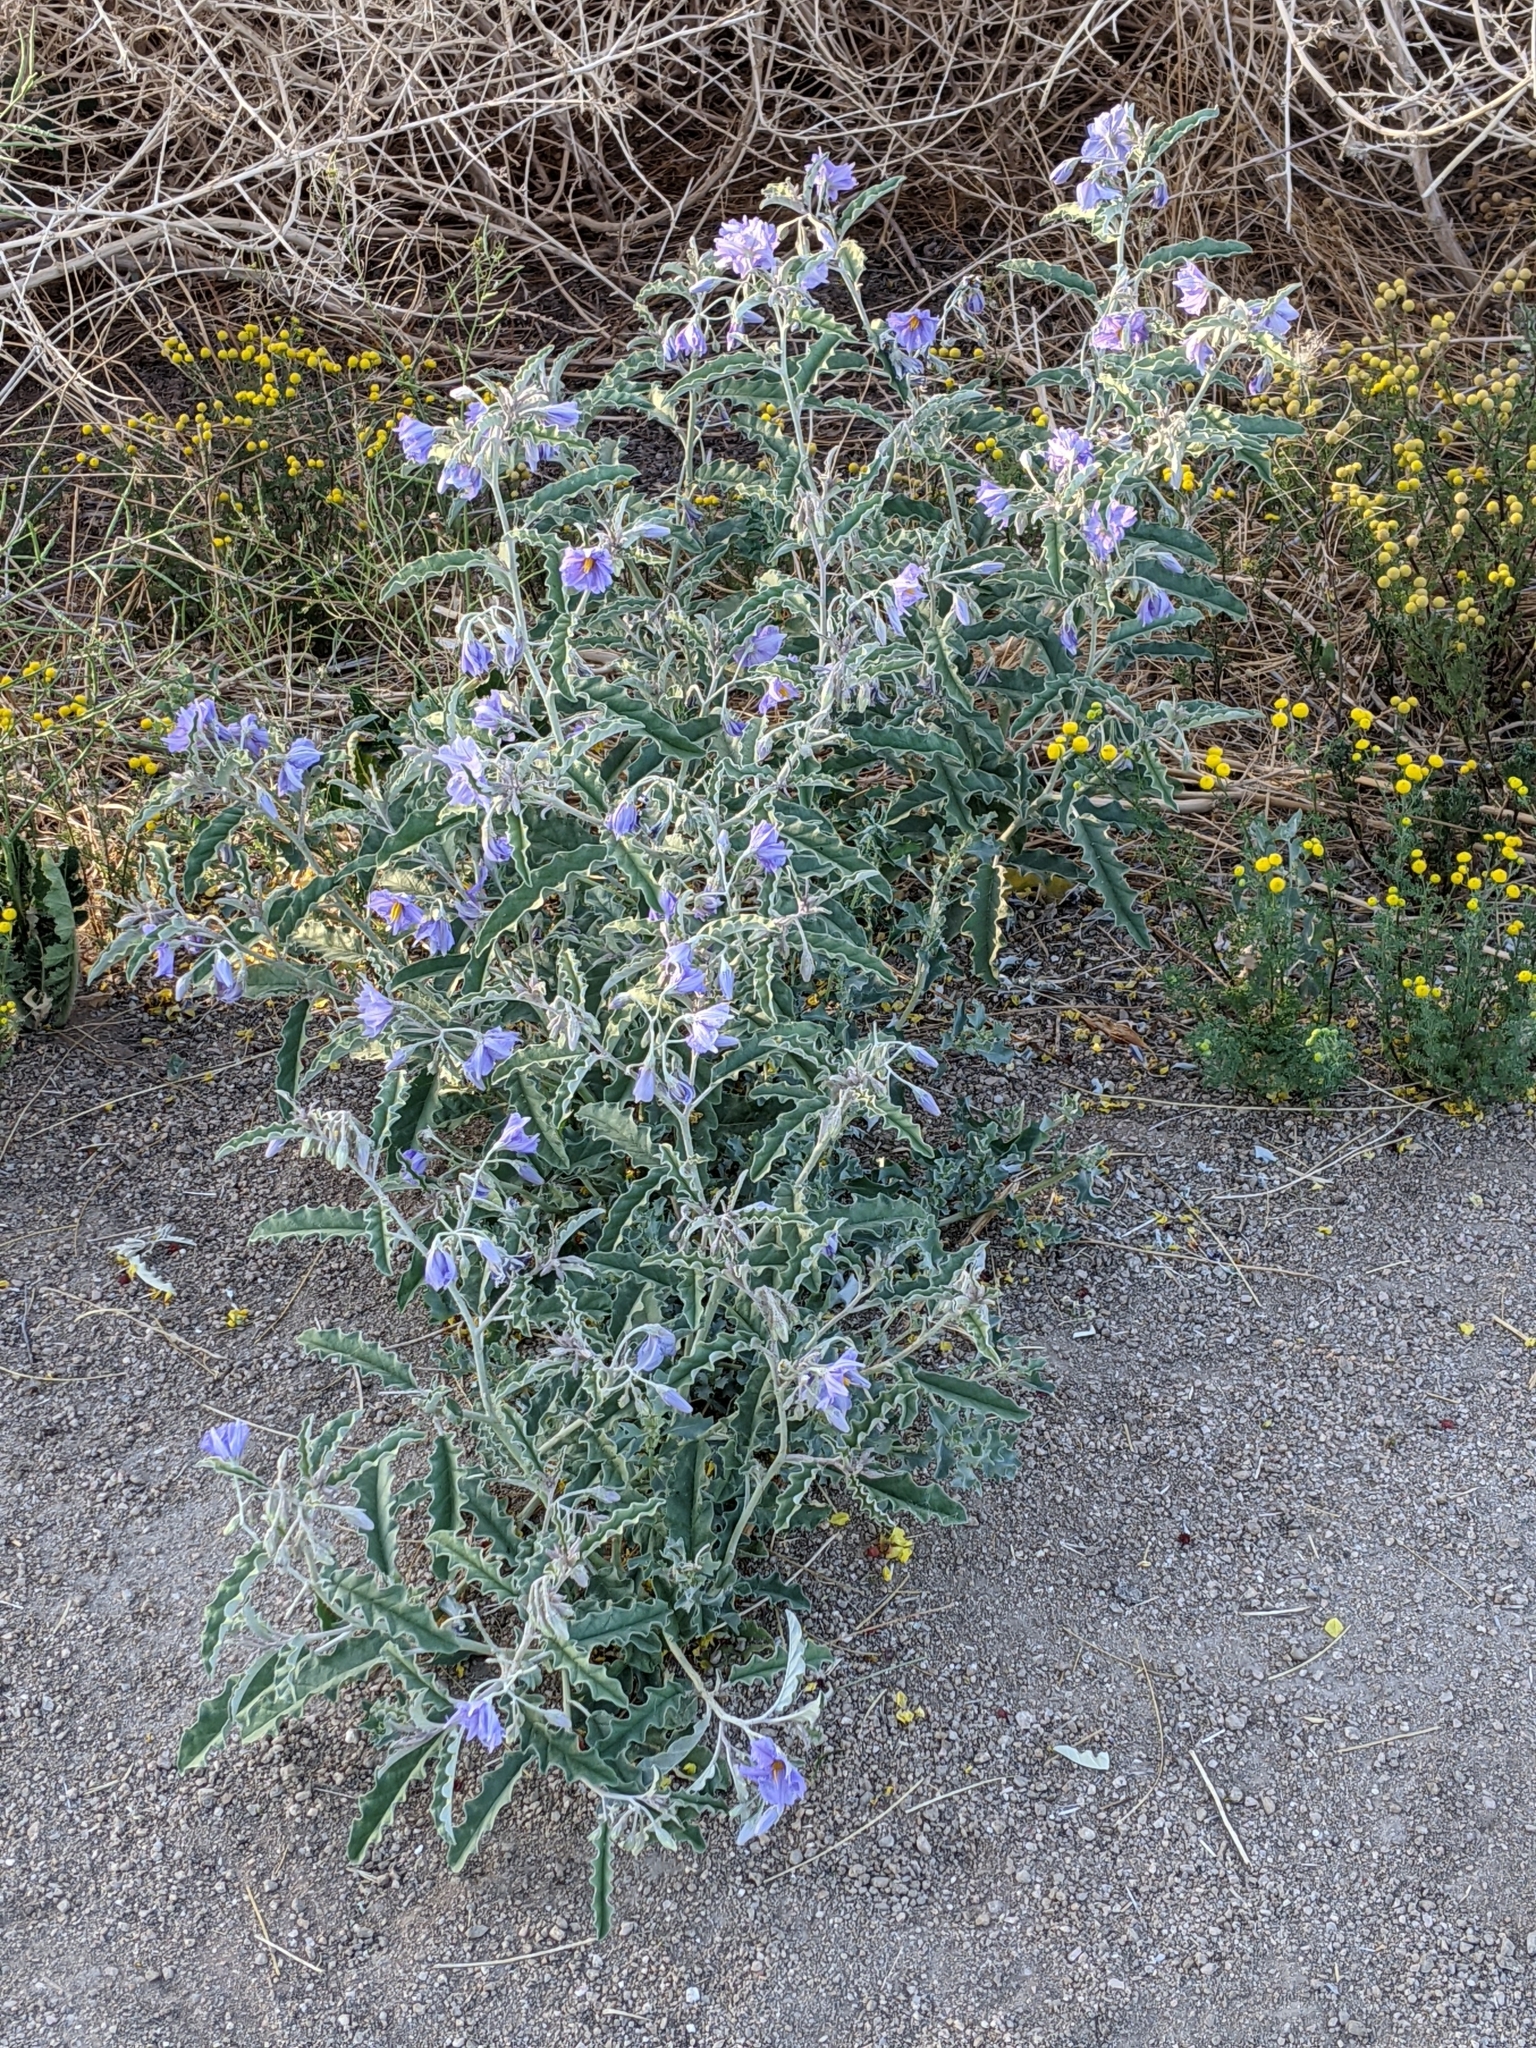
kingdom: Plantae
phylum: Tracheophyta
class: Magnoliopsida
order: Solanales
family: Solanaceae
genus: Solanum
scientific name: Solanum elaeagnifolium
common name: Silverleaf nightshade
